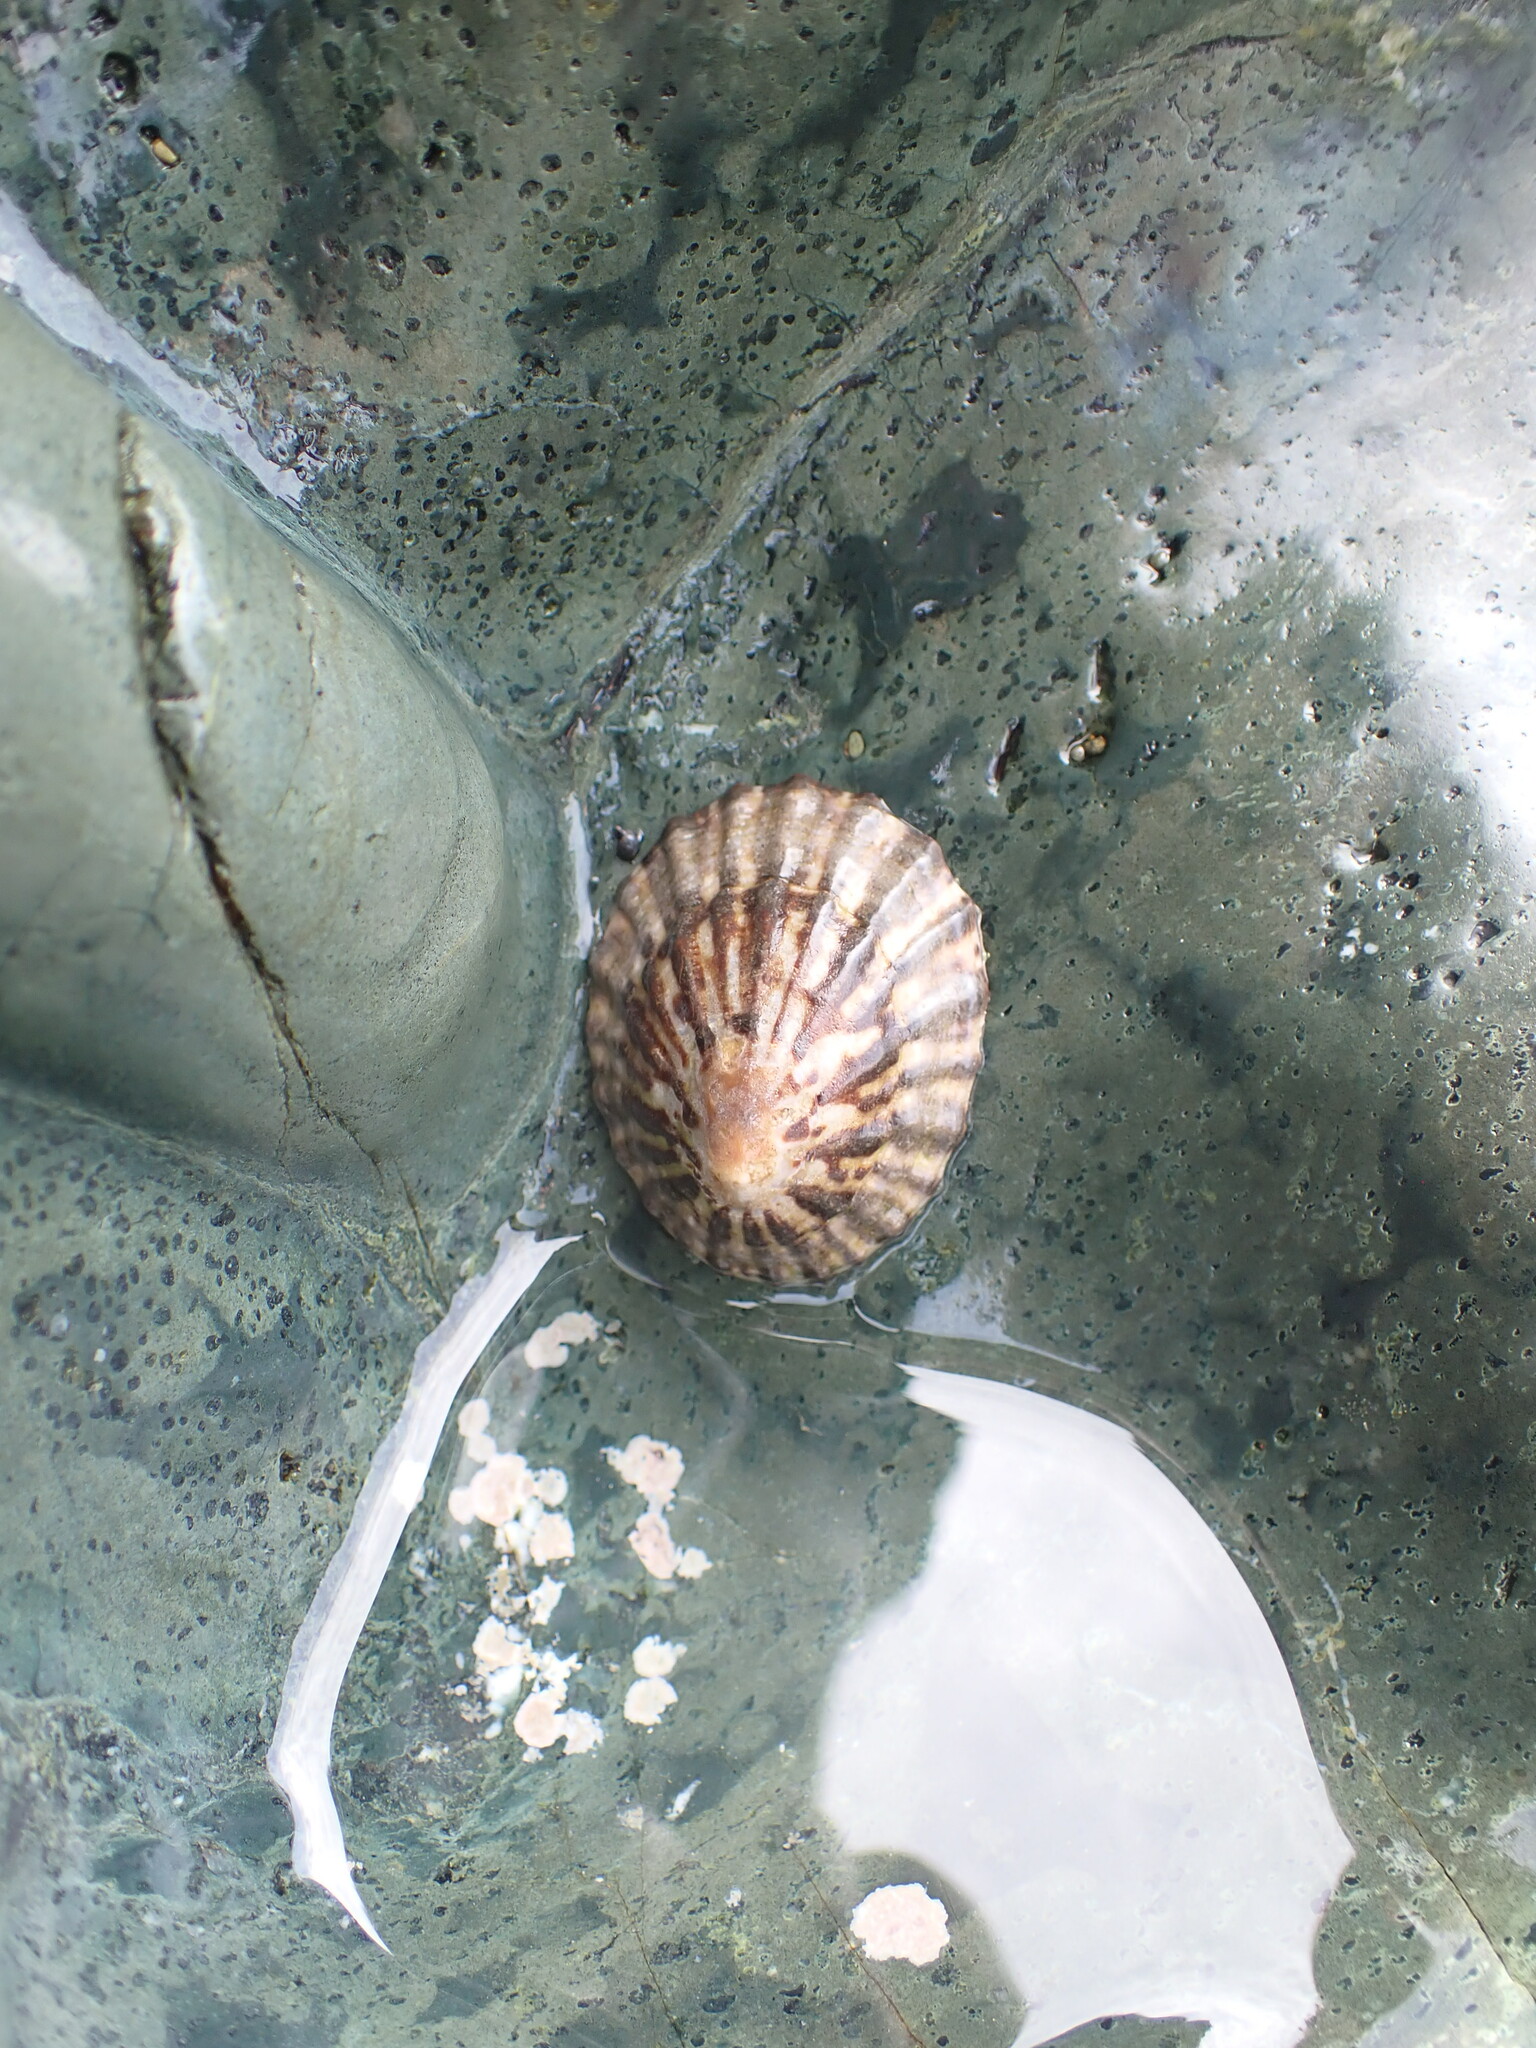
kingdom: Animalia
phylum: Mollusca
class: Gastropoda
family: Nacellidae
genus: Cellana
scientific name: Cellana strigilis
